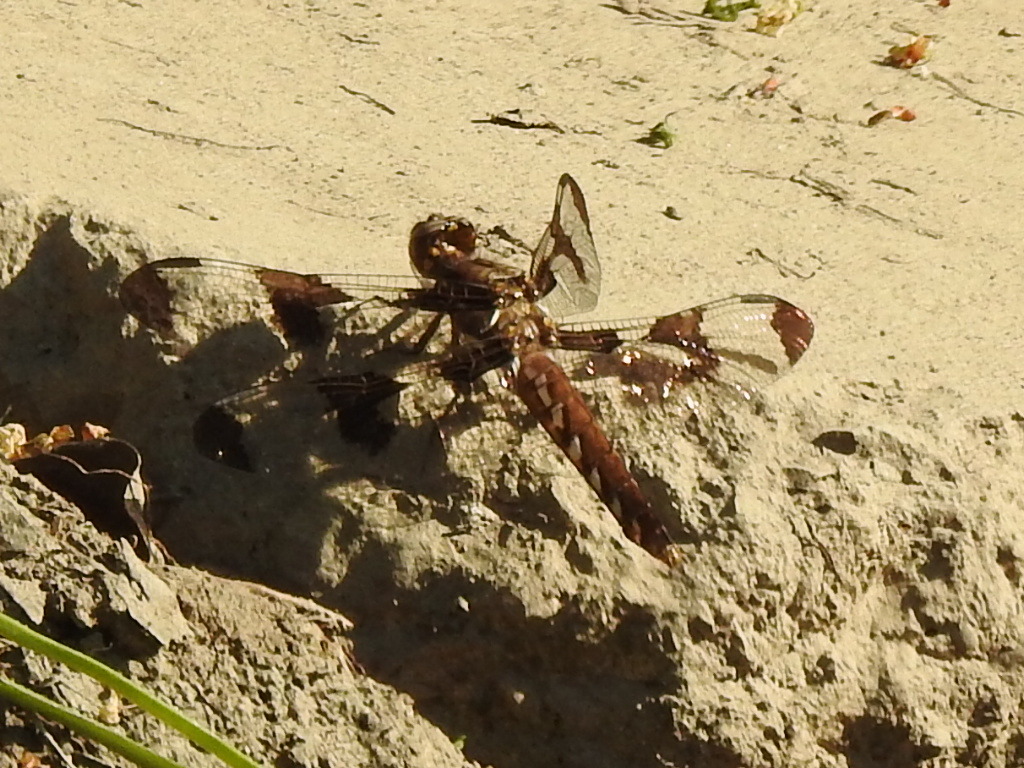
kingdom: Animalia
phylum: Arthropoda
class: Insecta
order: Odonata
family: Libellulidae
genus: Plathemis
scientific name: Plathemis lydia
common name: Common whitetail
